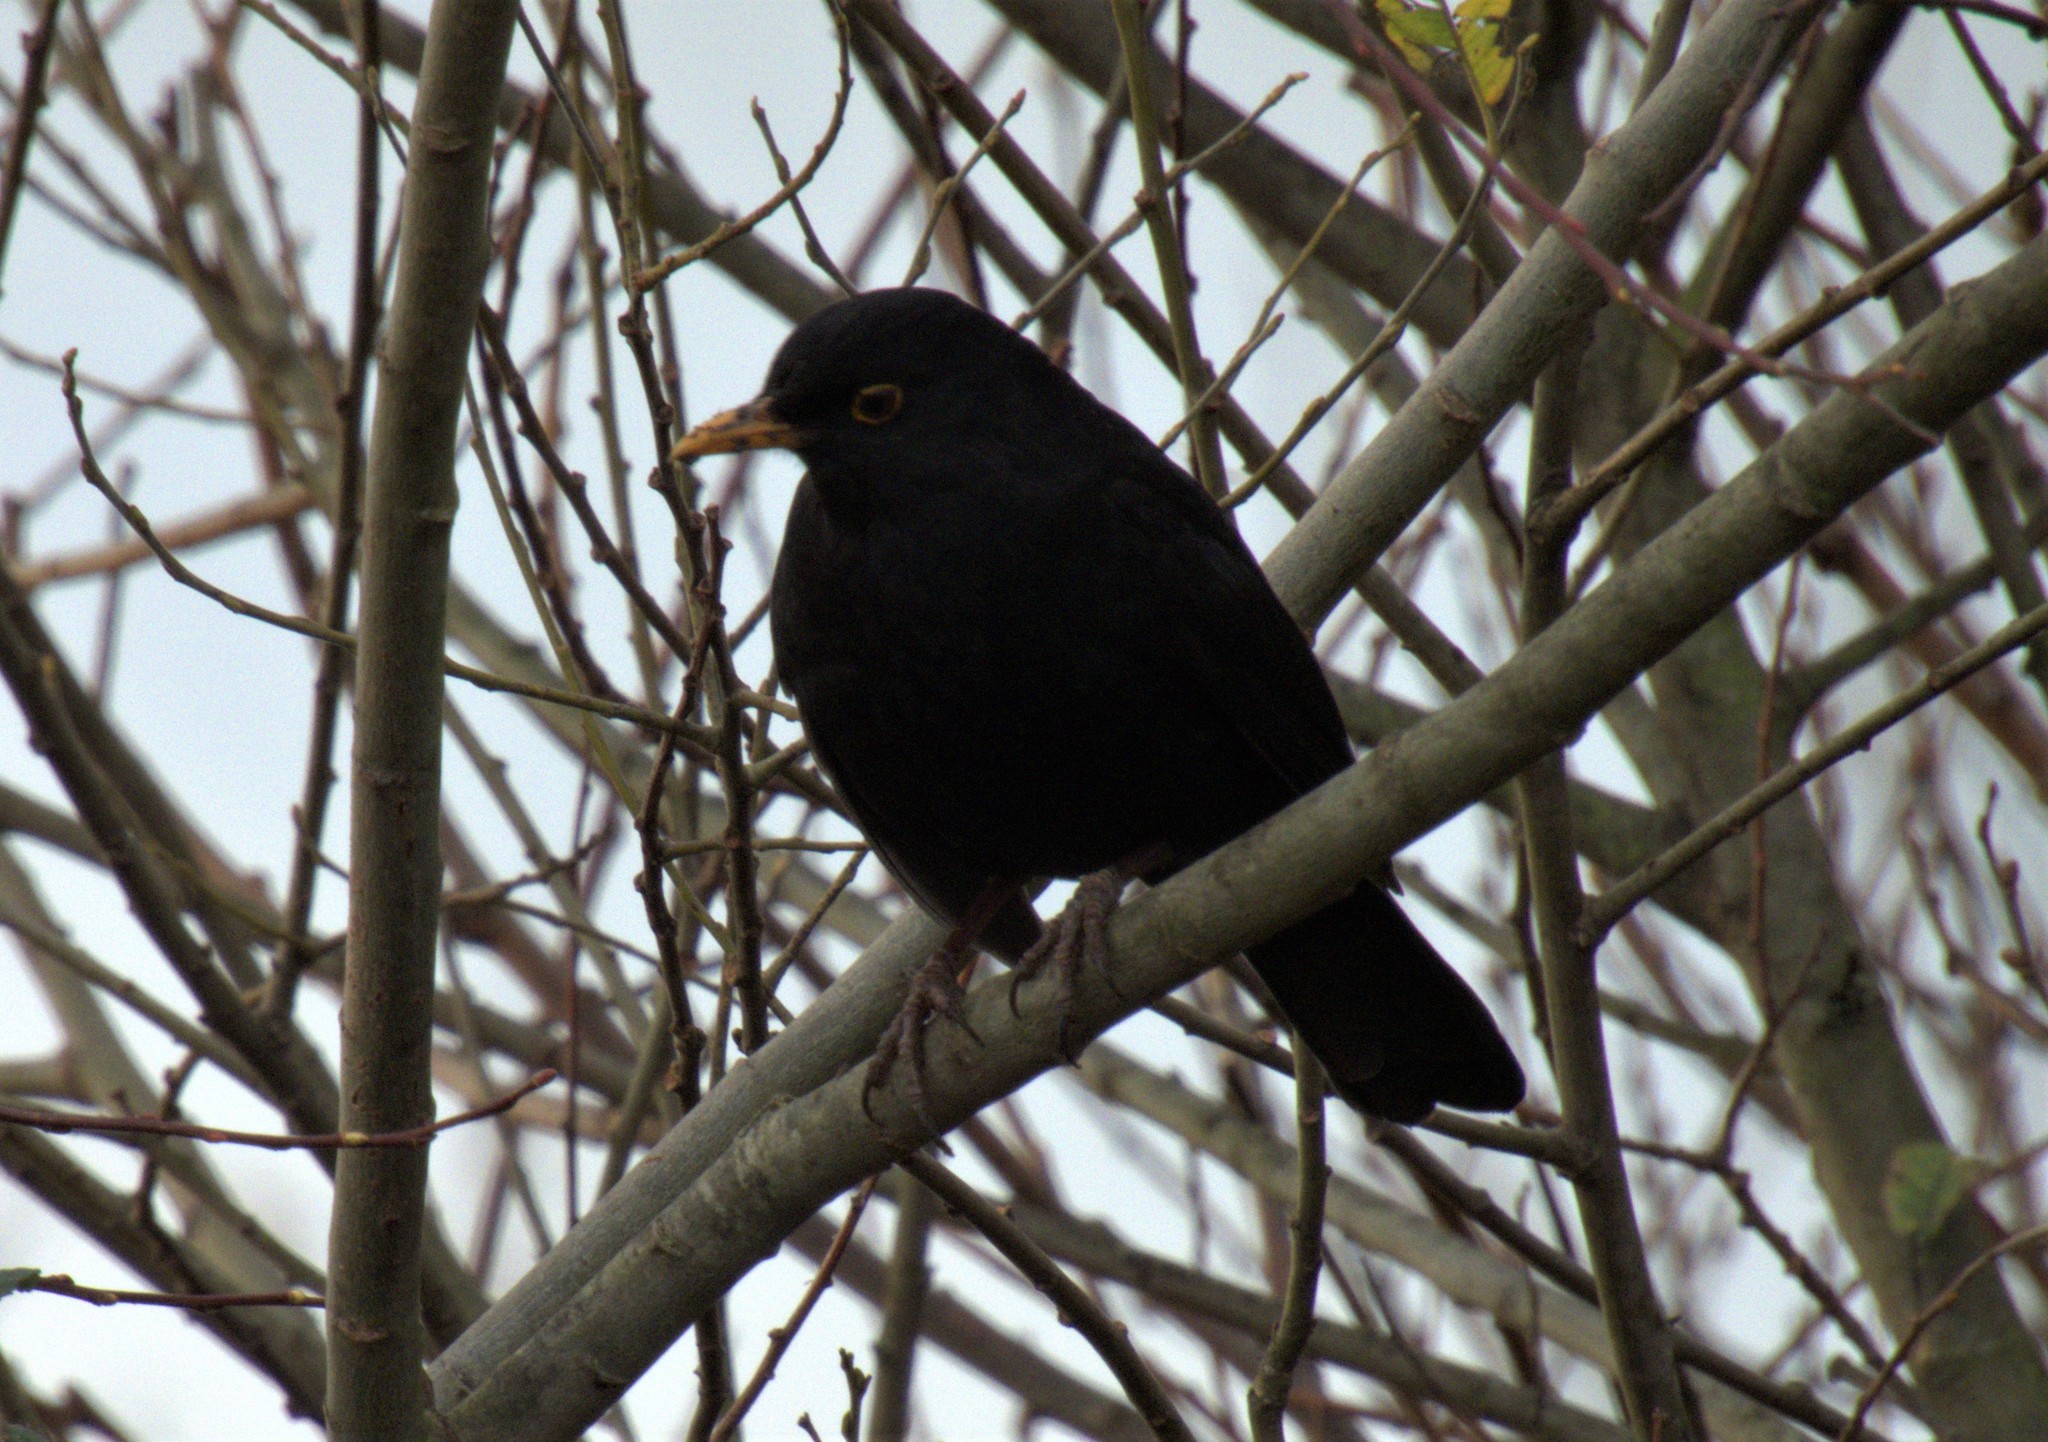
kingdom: Animalia
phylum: Chordata
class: Aves
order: Passeriformes
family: Turdidae
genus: Turdus
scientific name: Turdus merula
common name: Common blackbird
